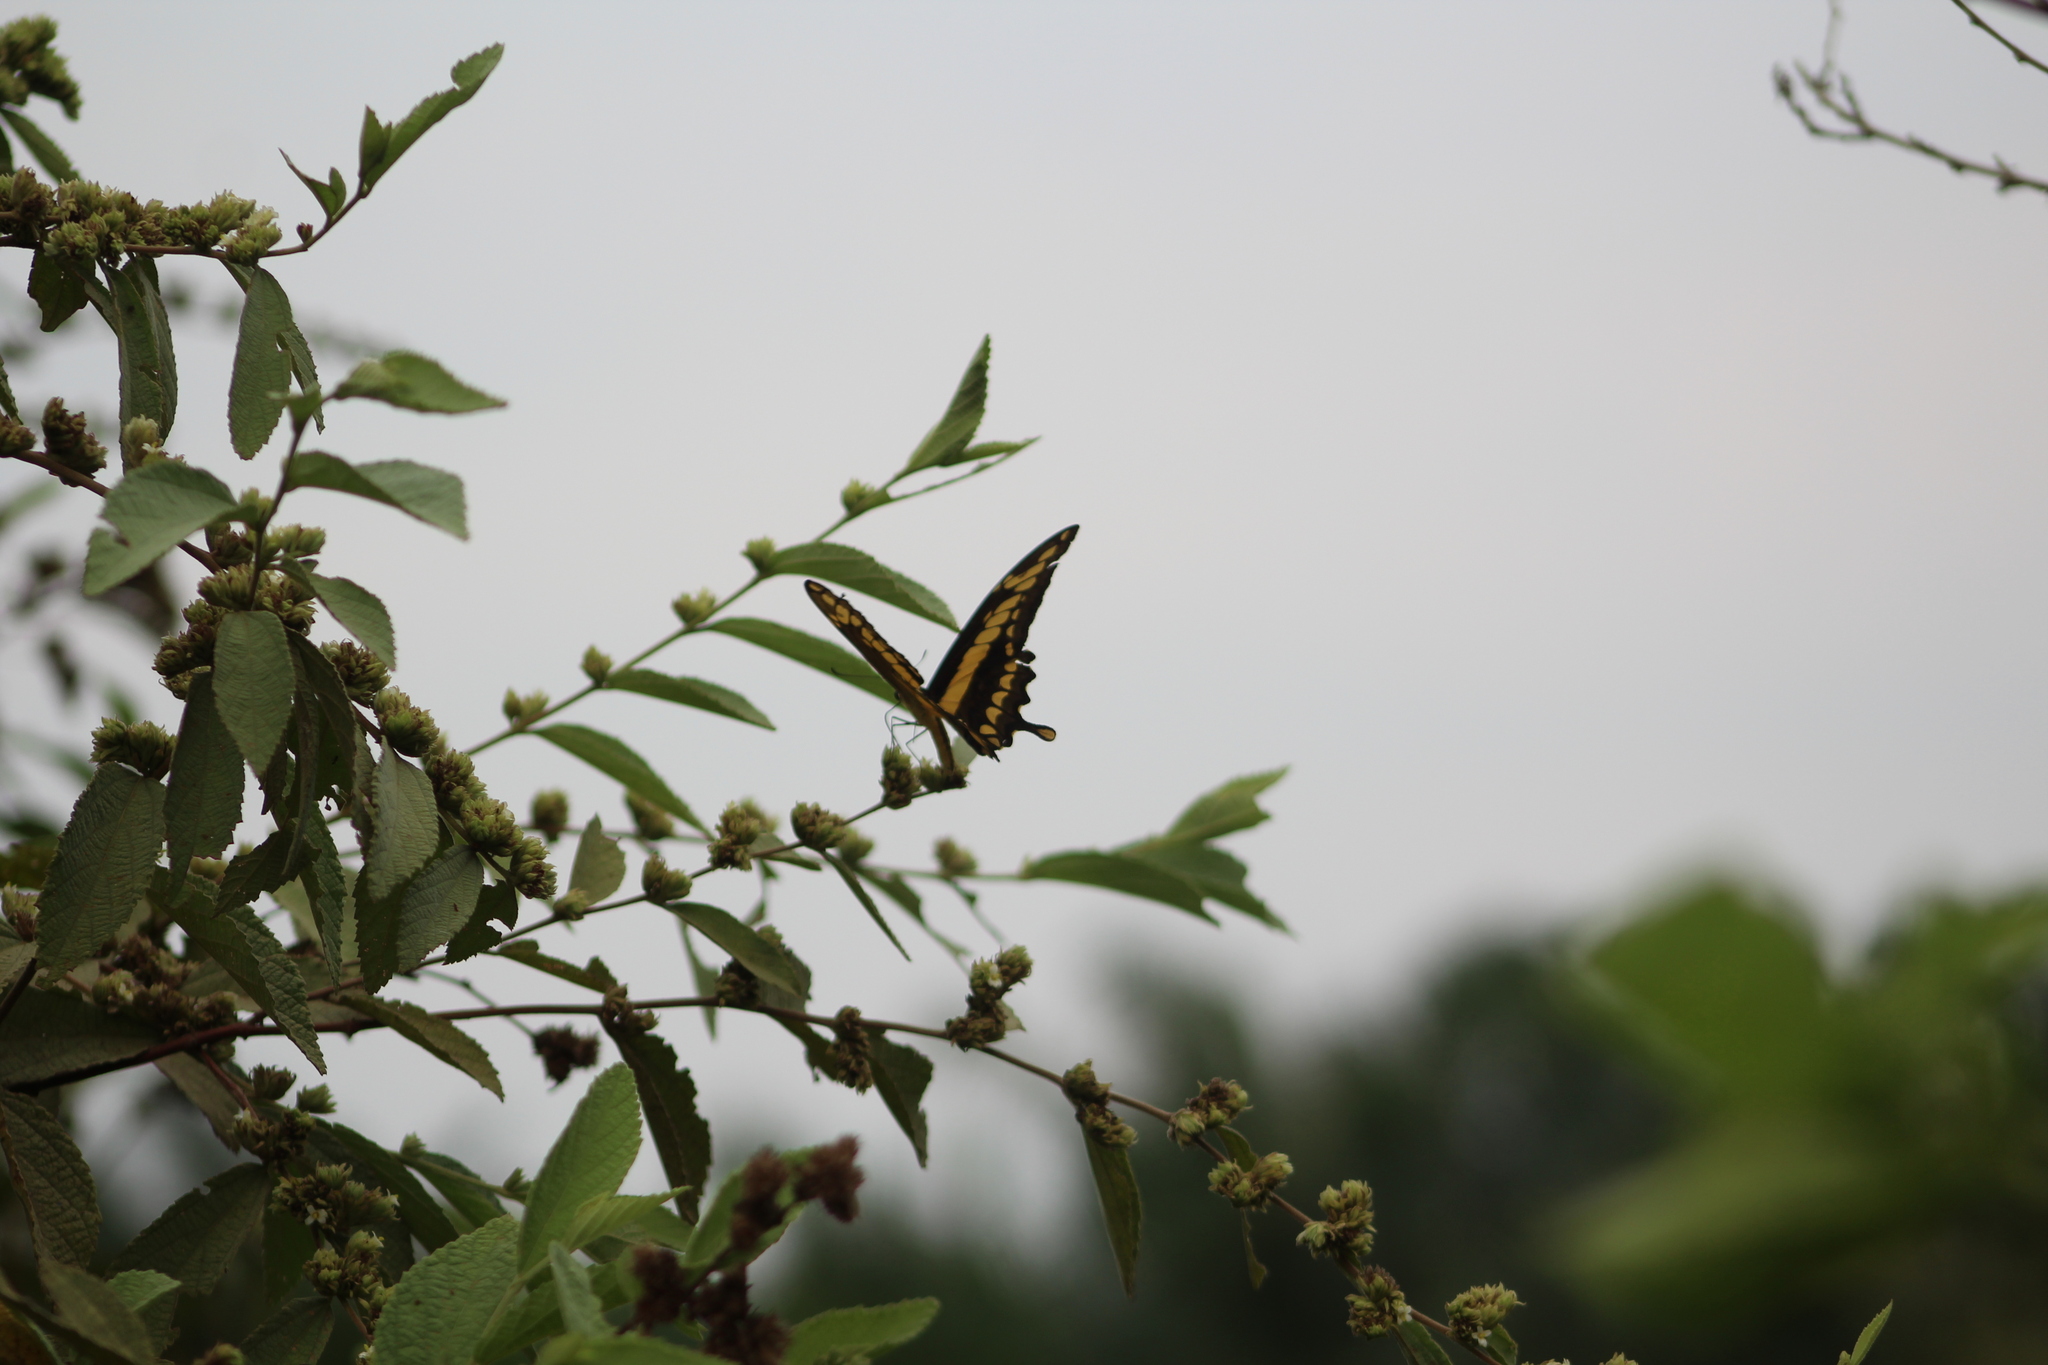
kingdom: Animalia
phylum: Arthropoda
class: Insecta
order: Lepidoptera
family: Papilionidae
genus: Papilio
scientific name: Papilio thoas
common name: King swallowtail
